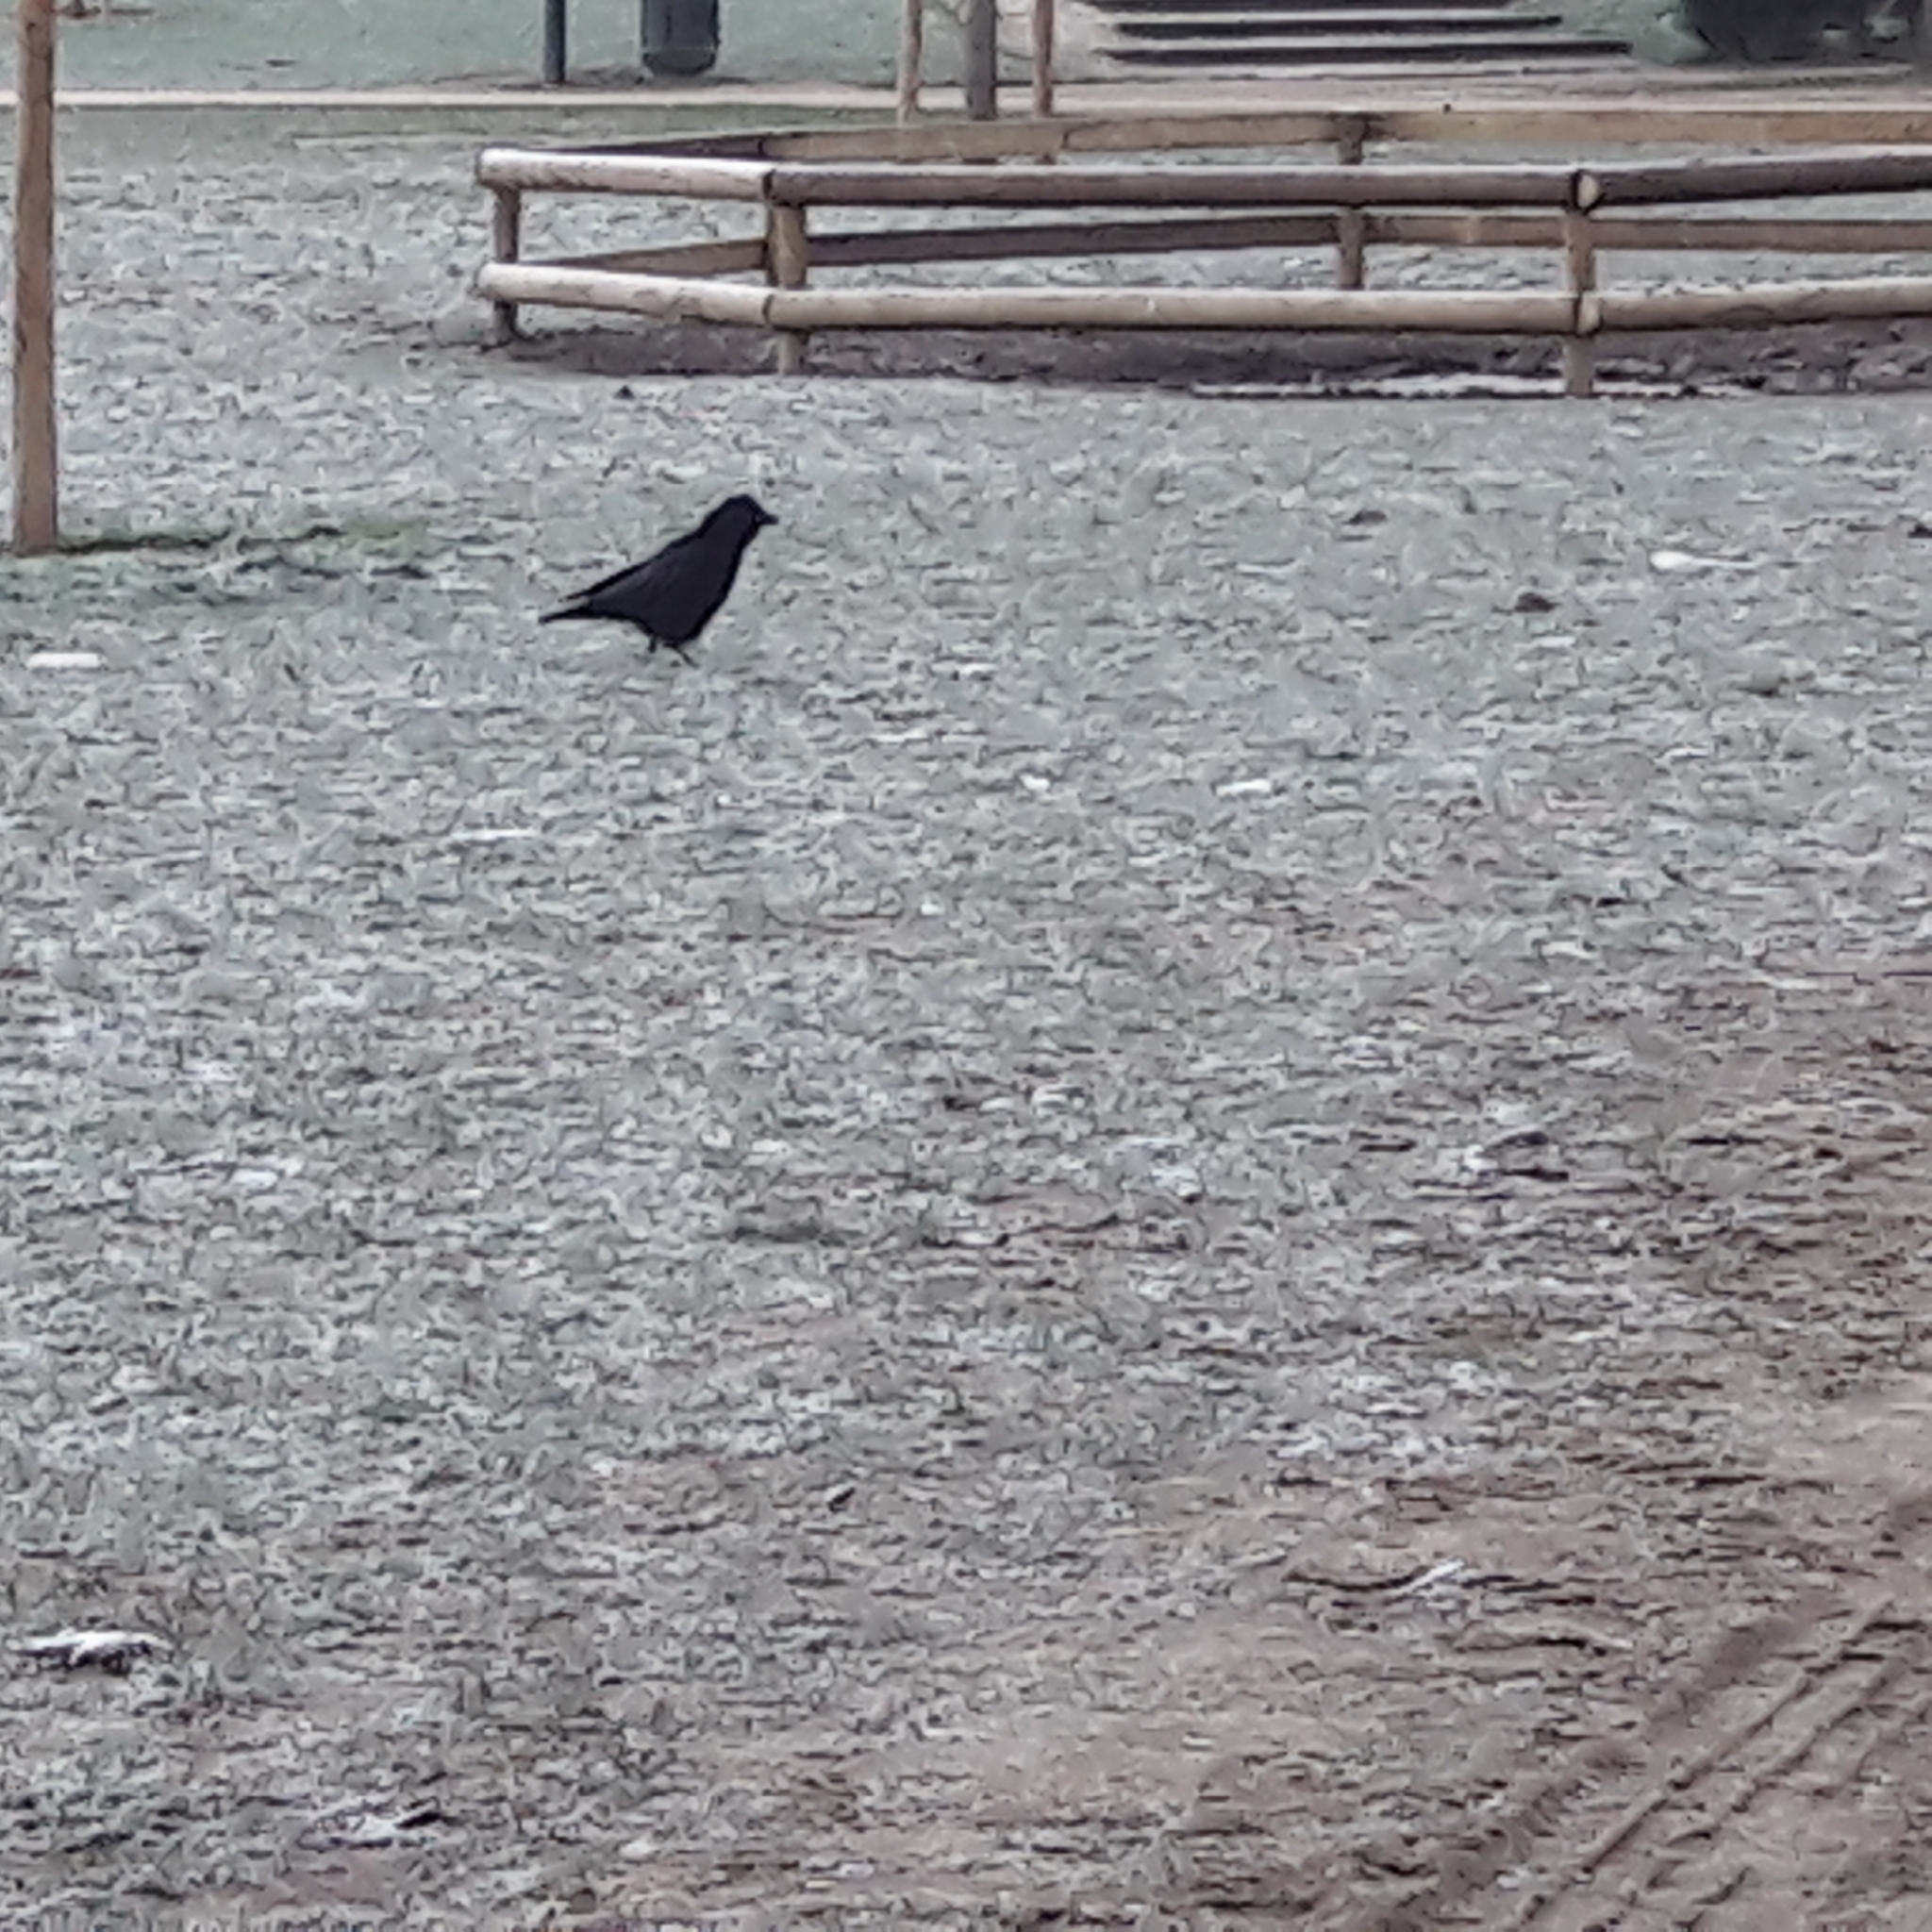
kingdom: Animalia
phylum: Chordata
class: Aves
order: Passeriformes
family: Corvidae
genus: Corvus
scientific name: Corvus corone
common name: Carrion crow
